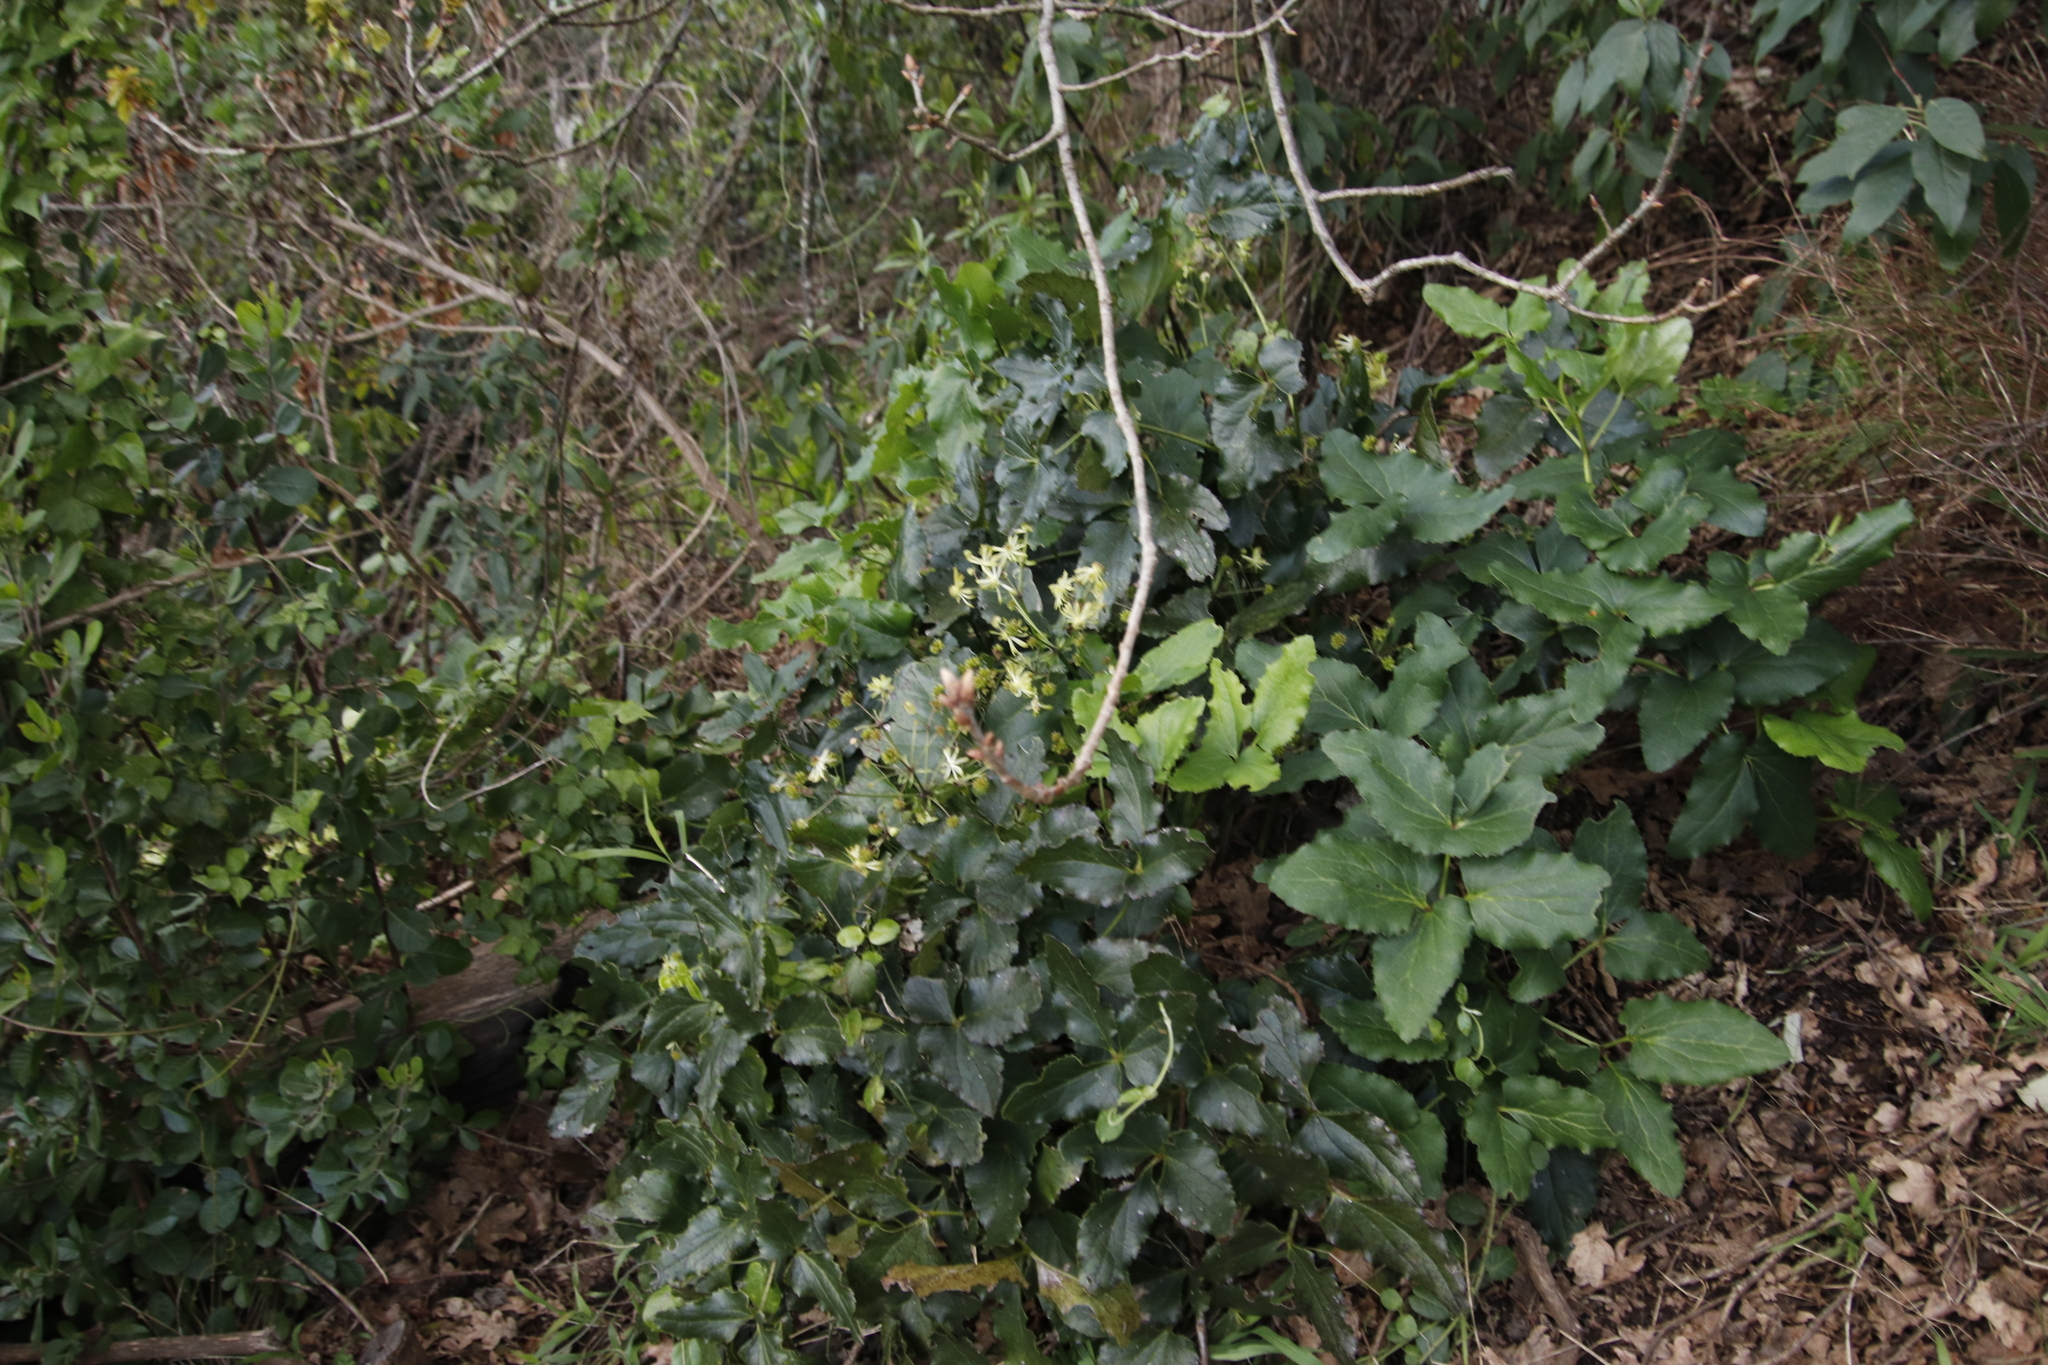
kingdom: Plantae
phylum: Tracheophyta
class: Magnoliopsida
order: Ranunculales
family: Ranunculaceae
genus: Knowltonia
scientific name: Knowltonia vesicatoria
